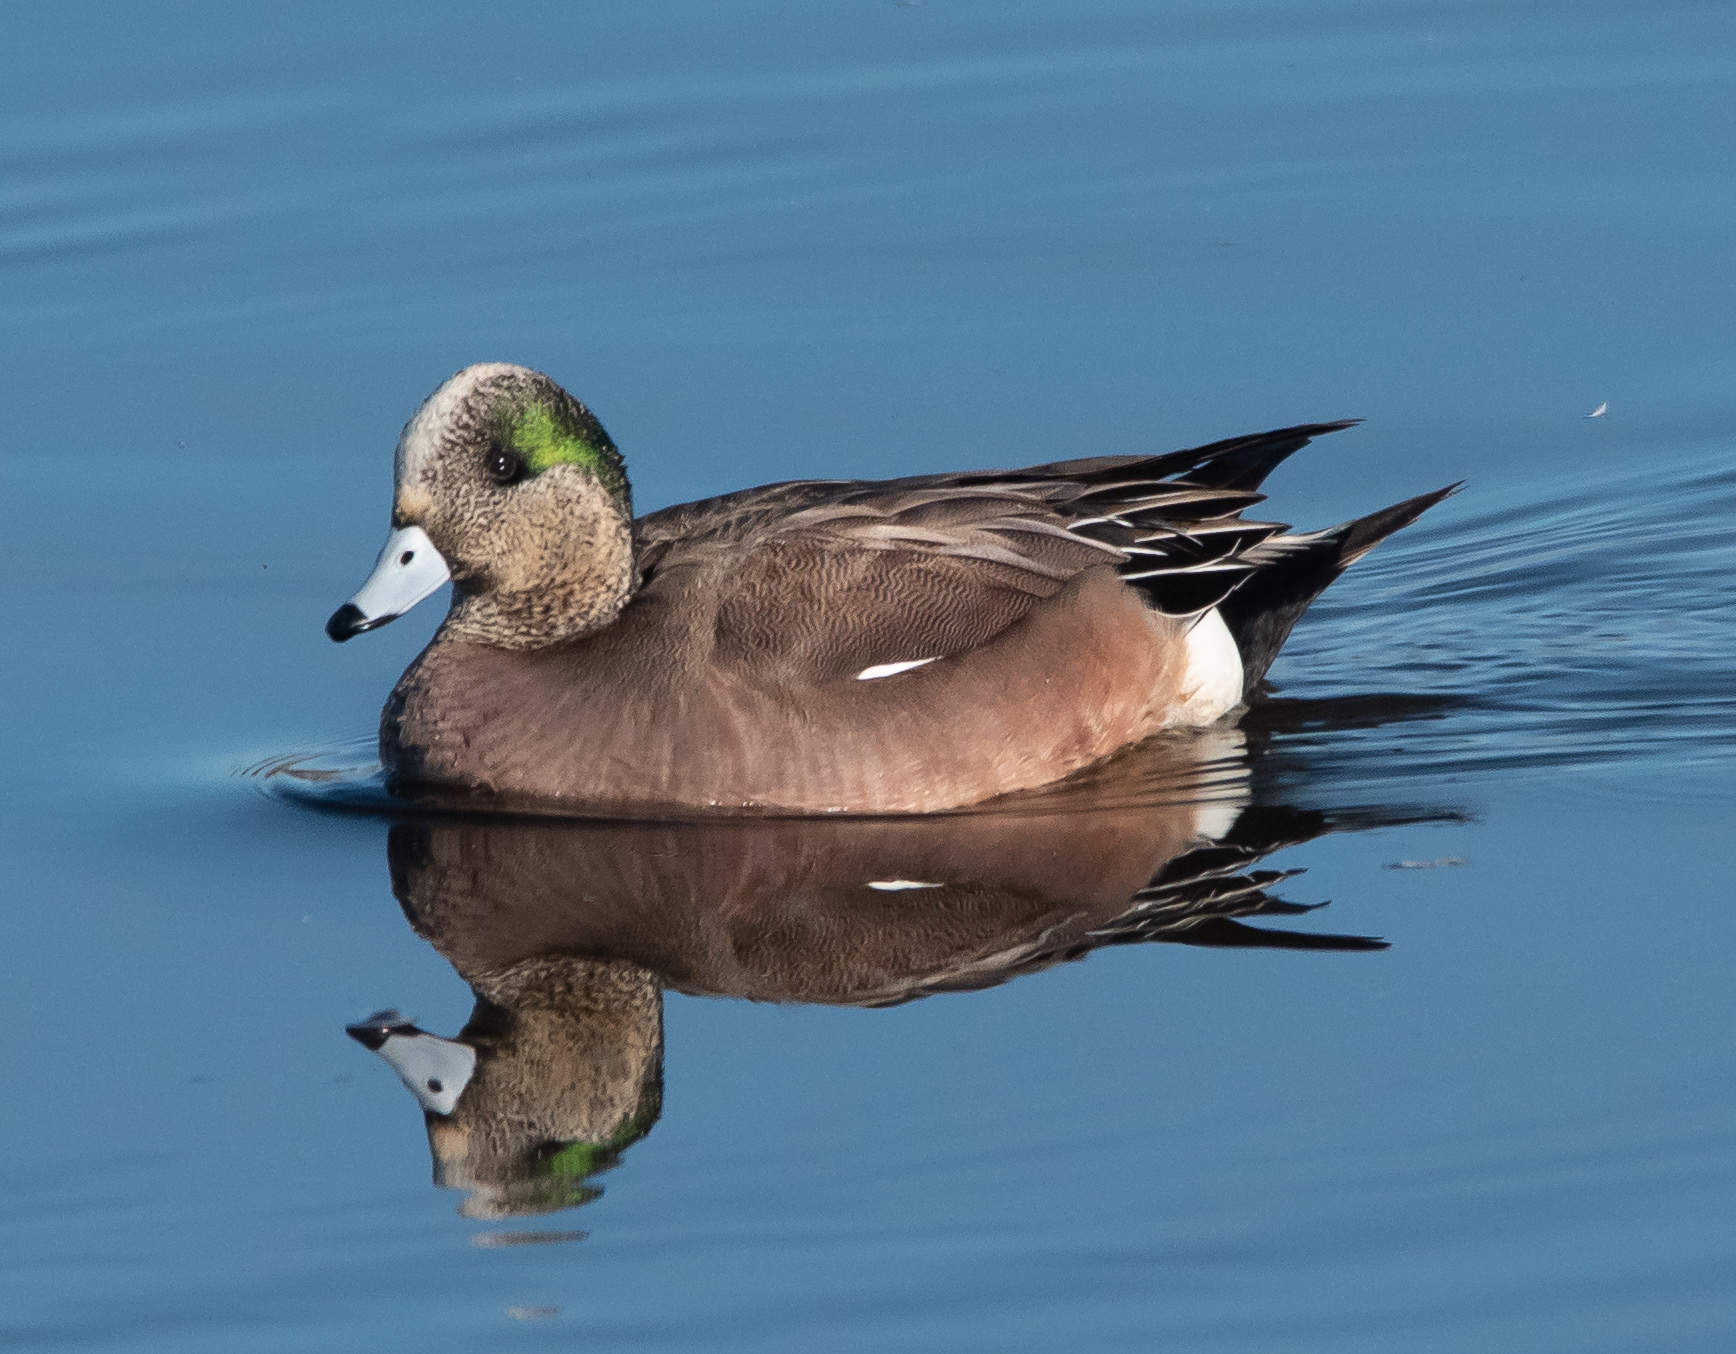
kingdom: Animalia
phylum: Chordata
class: Aves
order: Anseriformes
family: Anatidae
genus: Mareca
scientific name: Mareca americana
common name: American wigeon
